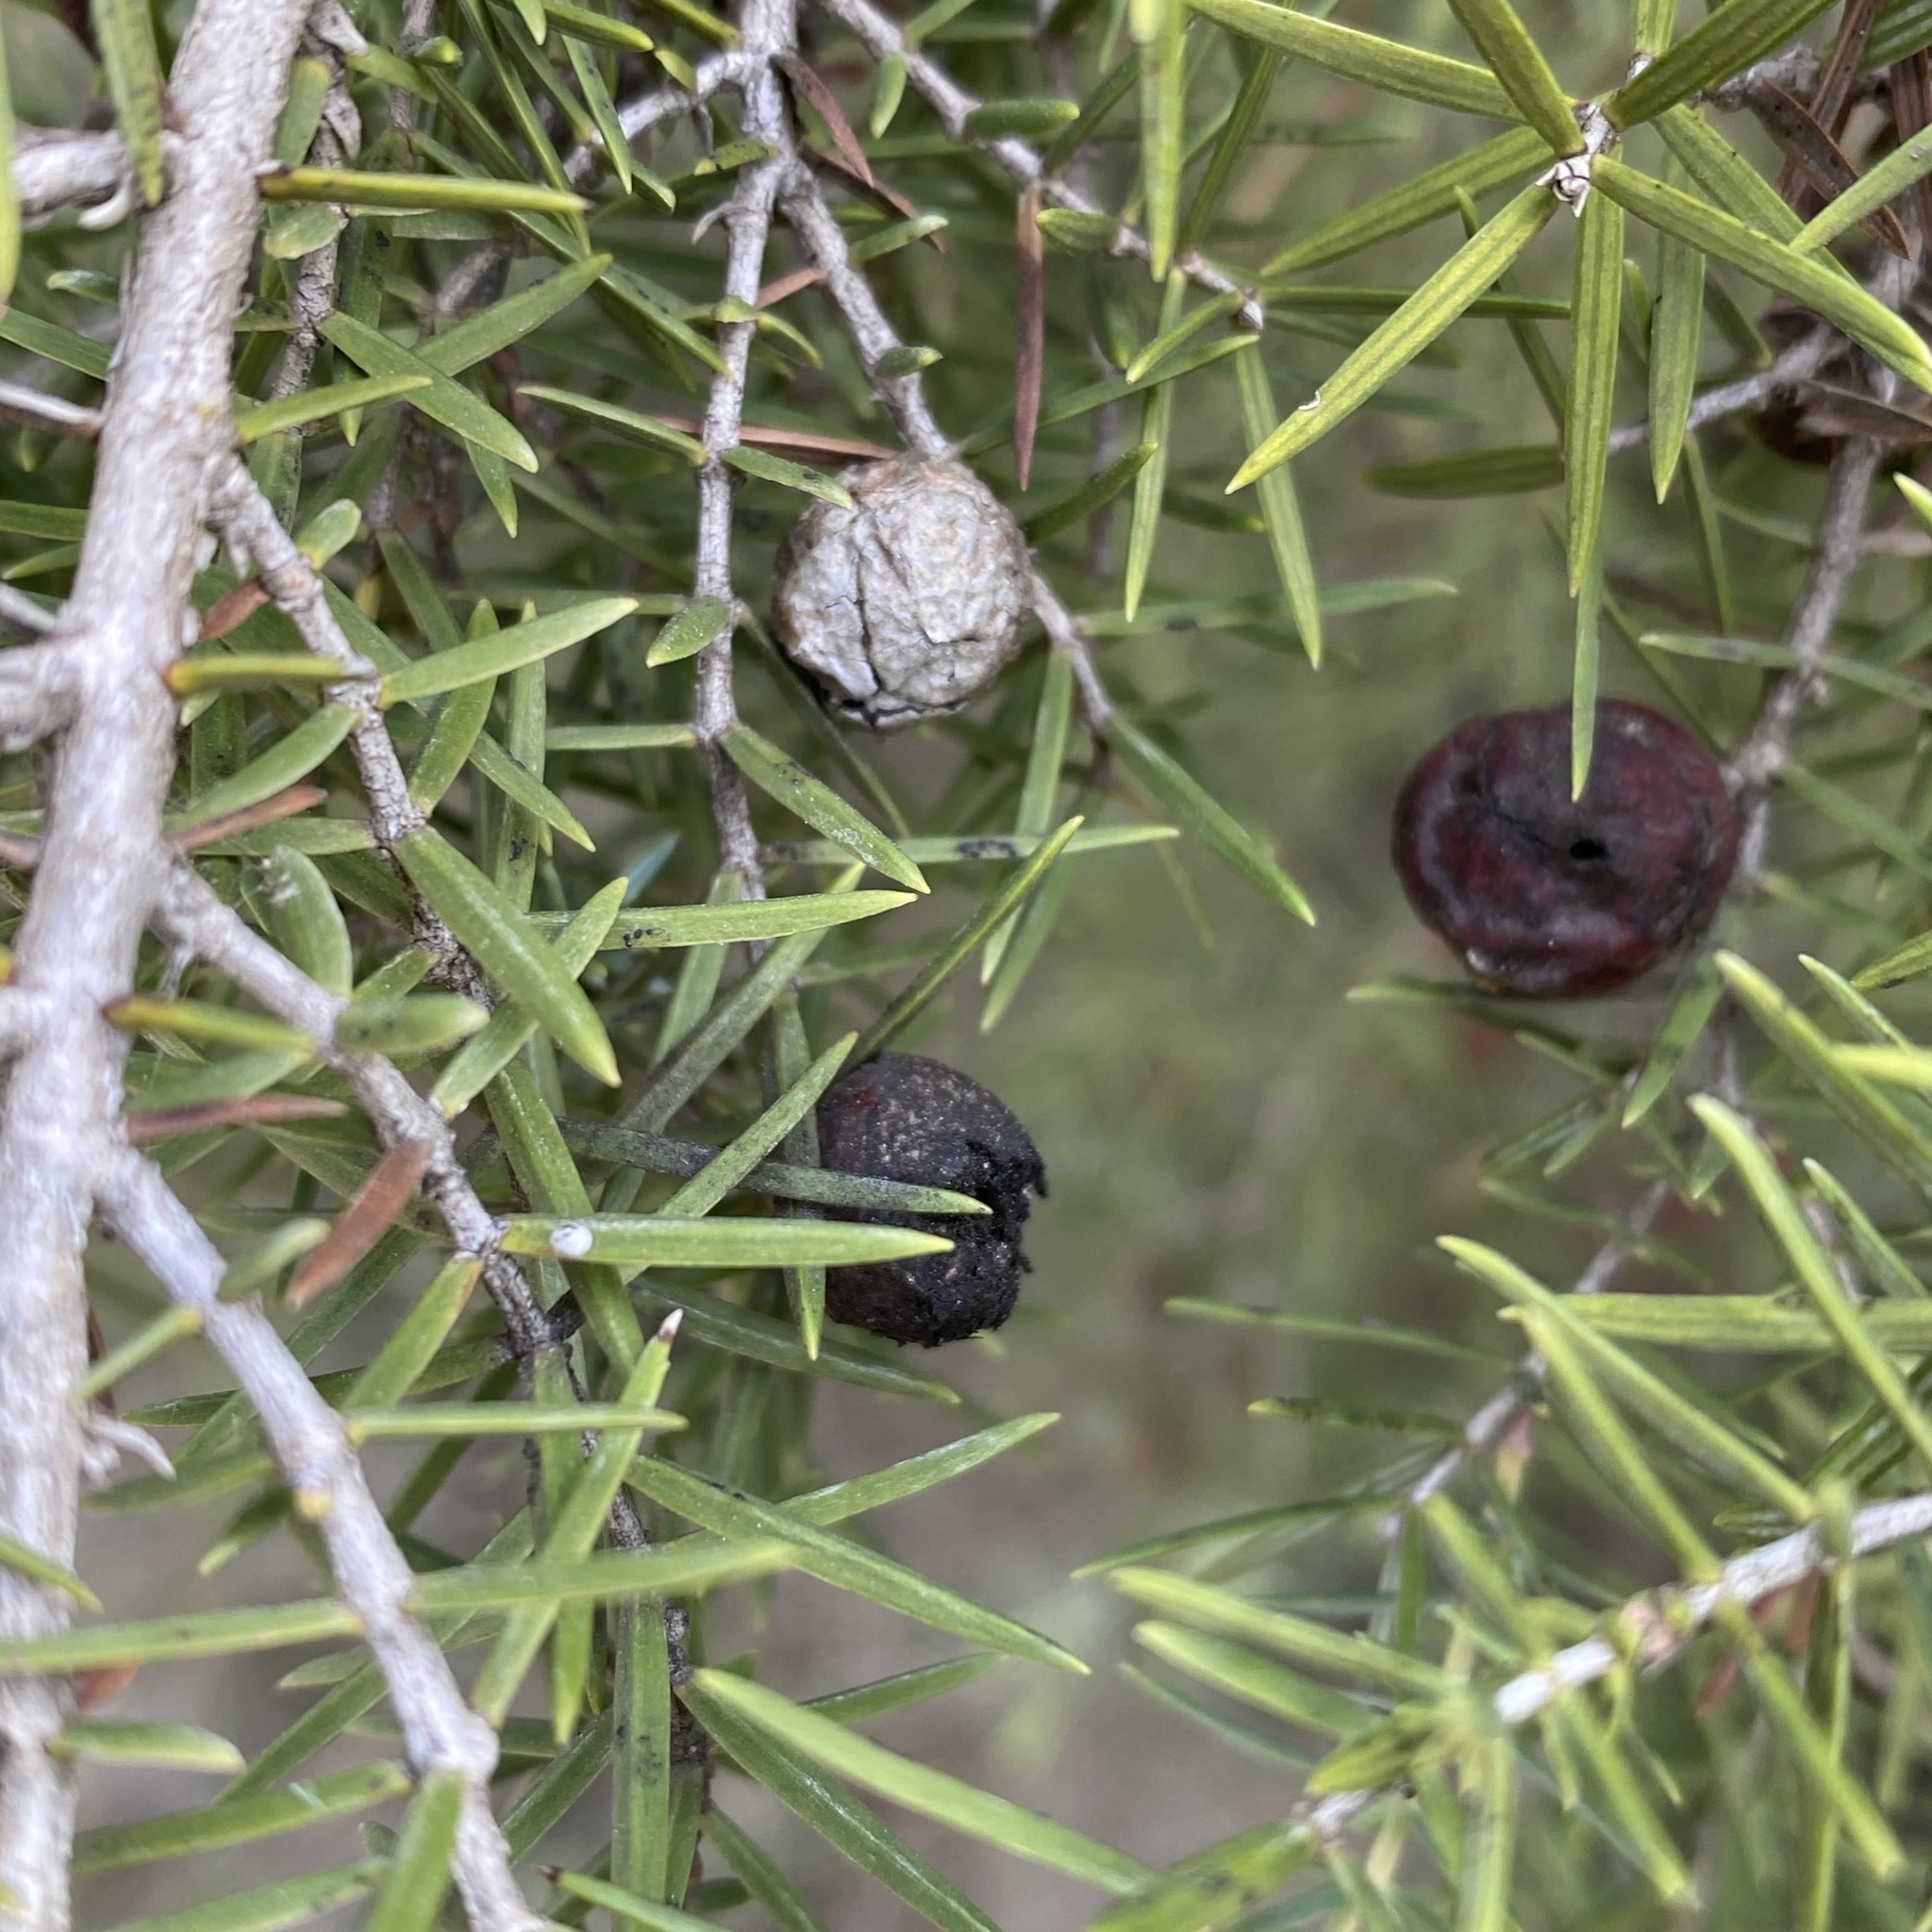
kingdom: Plantae
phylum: Tracheophyta
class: Pinopsida
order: Pinales
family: Cupressaceae
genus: Juniperus
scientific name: Juniperus oxycedrus
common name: Prickly juniper
